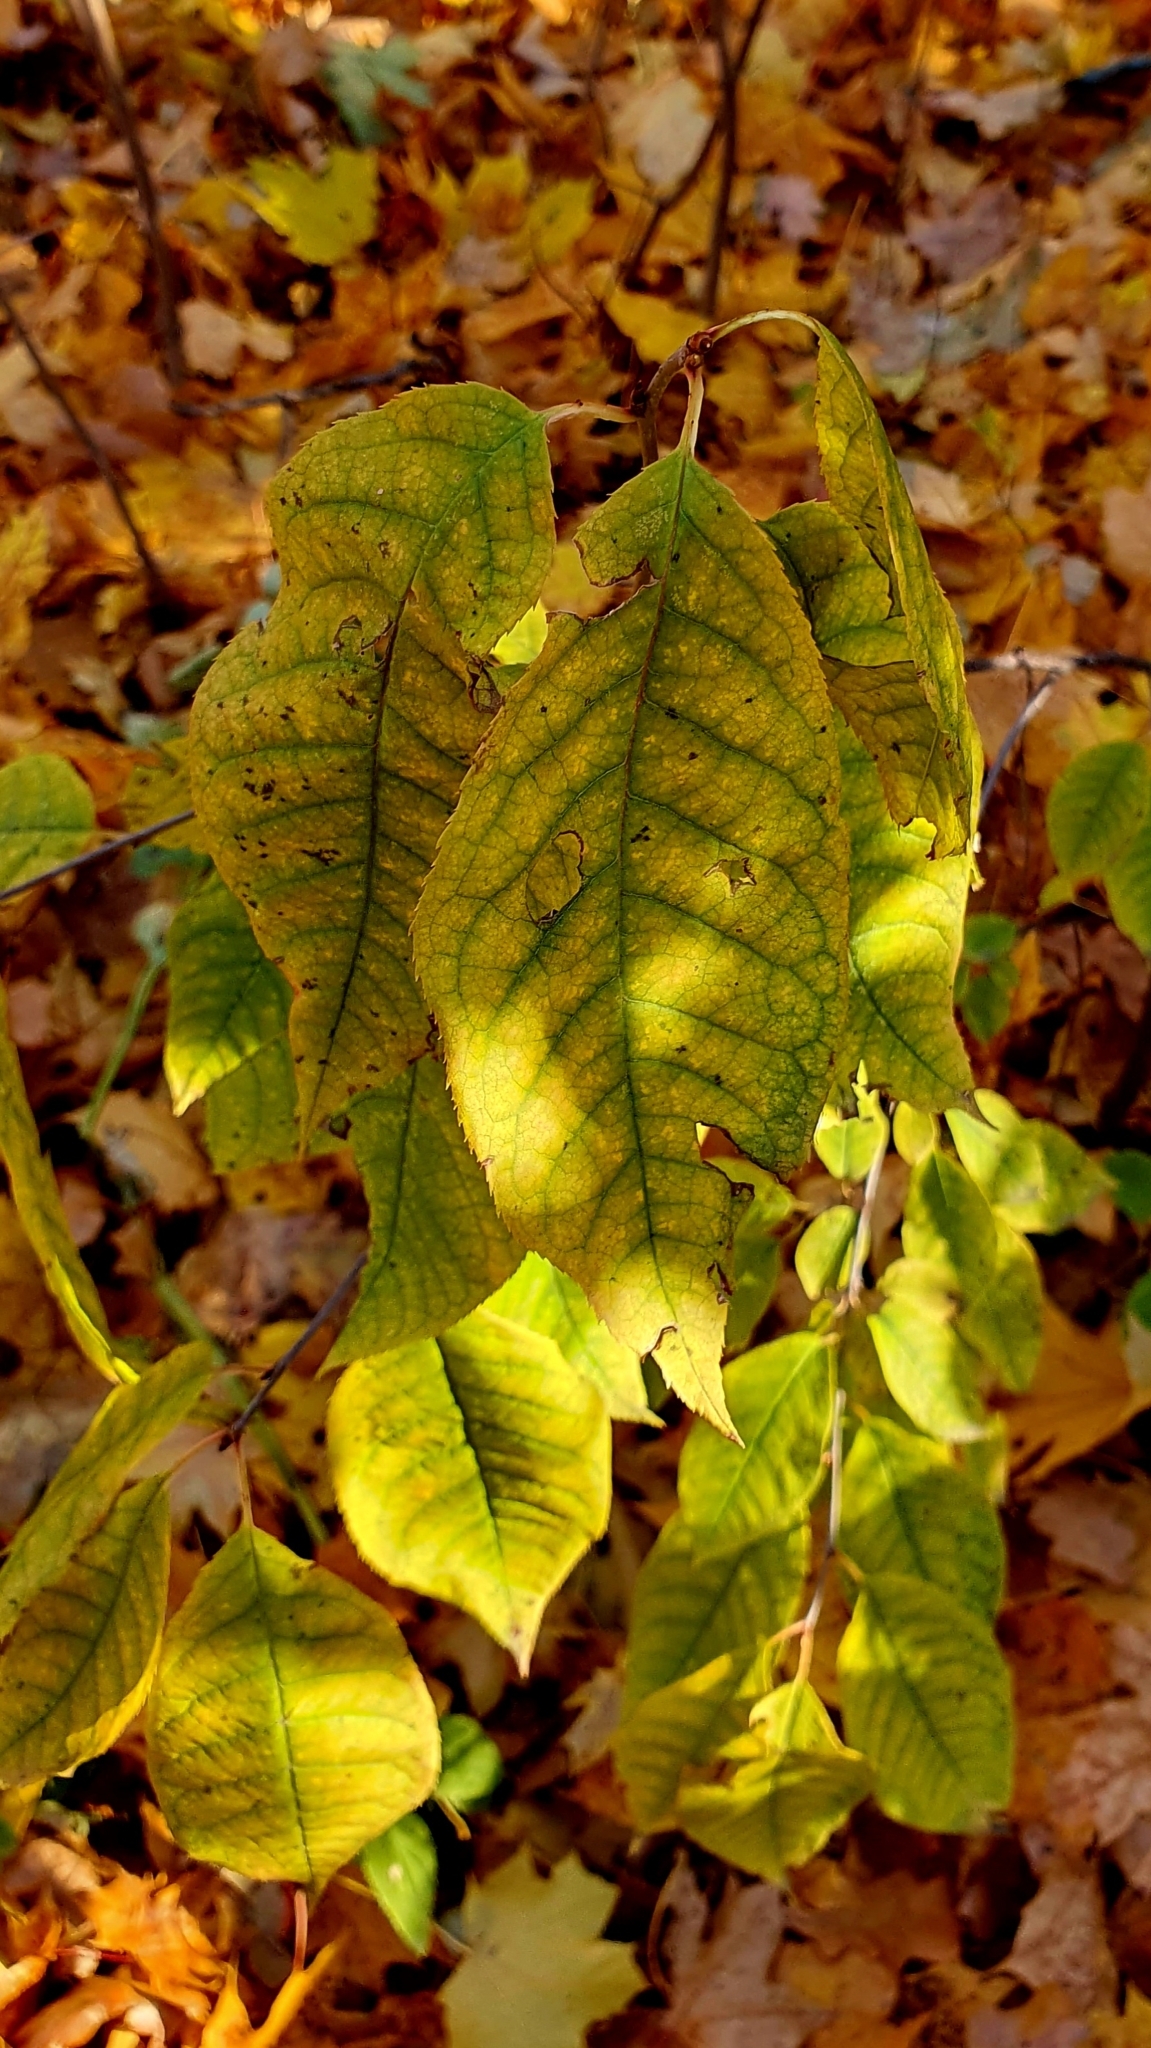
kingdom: Plantae
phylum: Tracheophyta
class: Magnoliopsida
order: Rosales
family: Rosaceae
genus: Prunus
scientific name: Prunus padus
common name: Bird cherry
